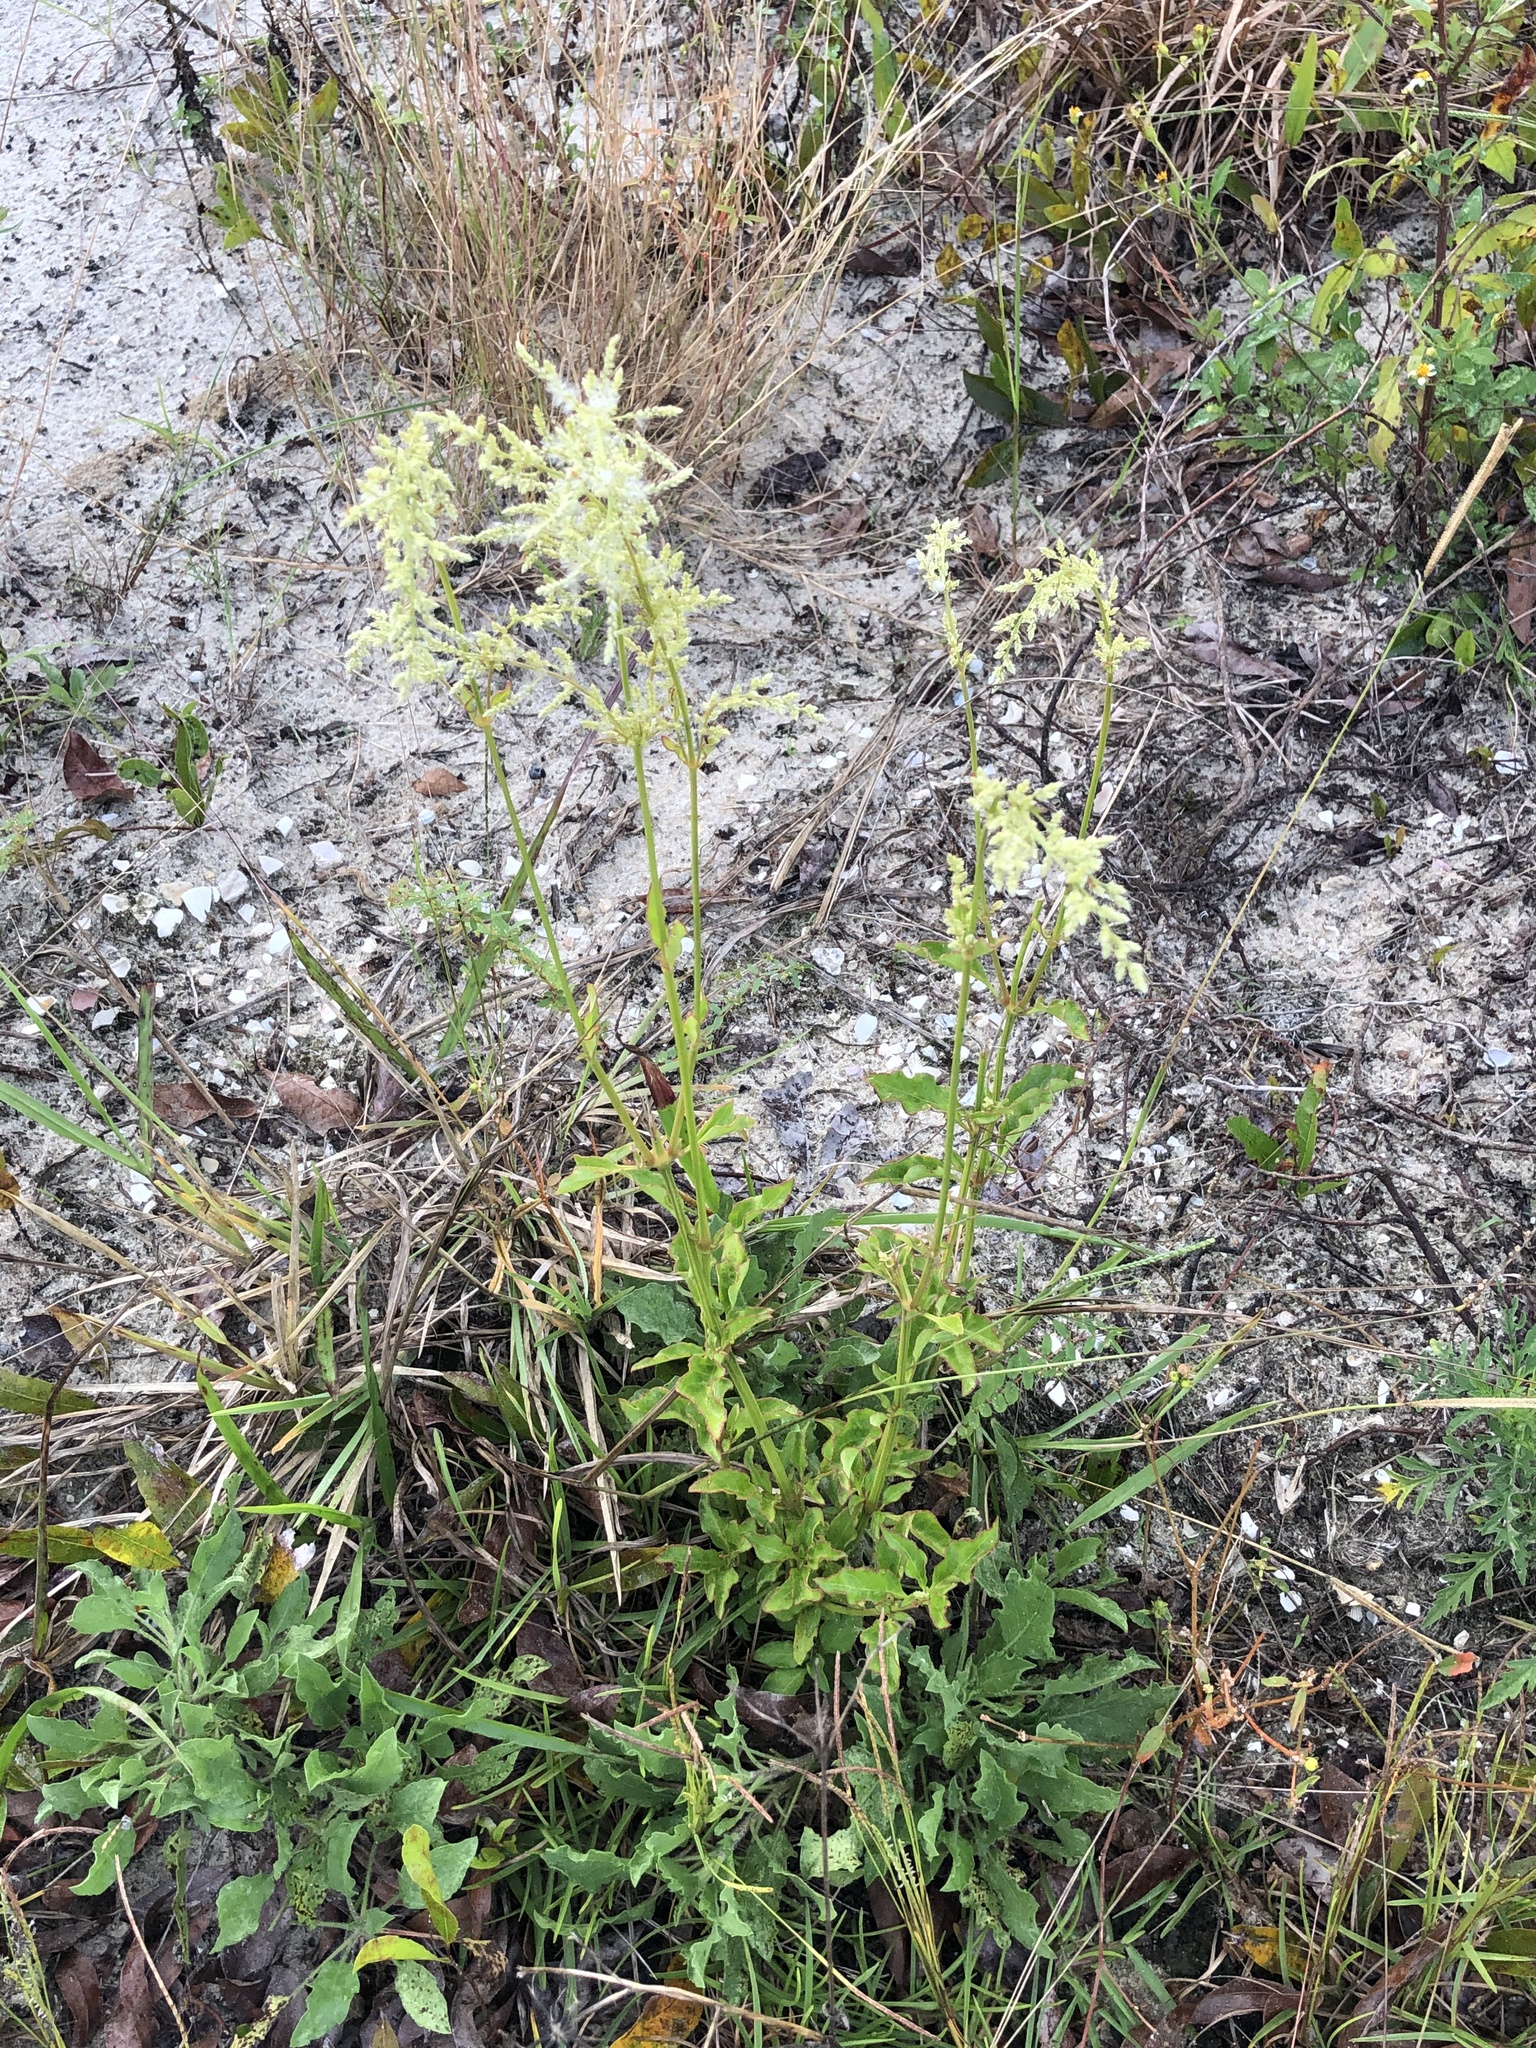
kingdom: Plantae
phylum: Tracheophyta
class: Magnoliopsida
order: Caryophyllales
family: Amaranthaceae
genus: Iresine
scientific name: Iresine diffusa
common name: Juba's-bush
